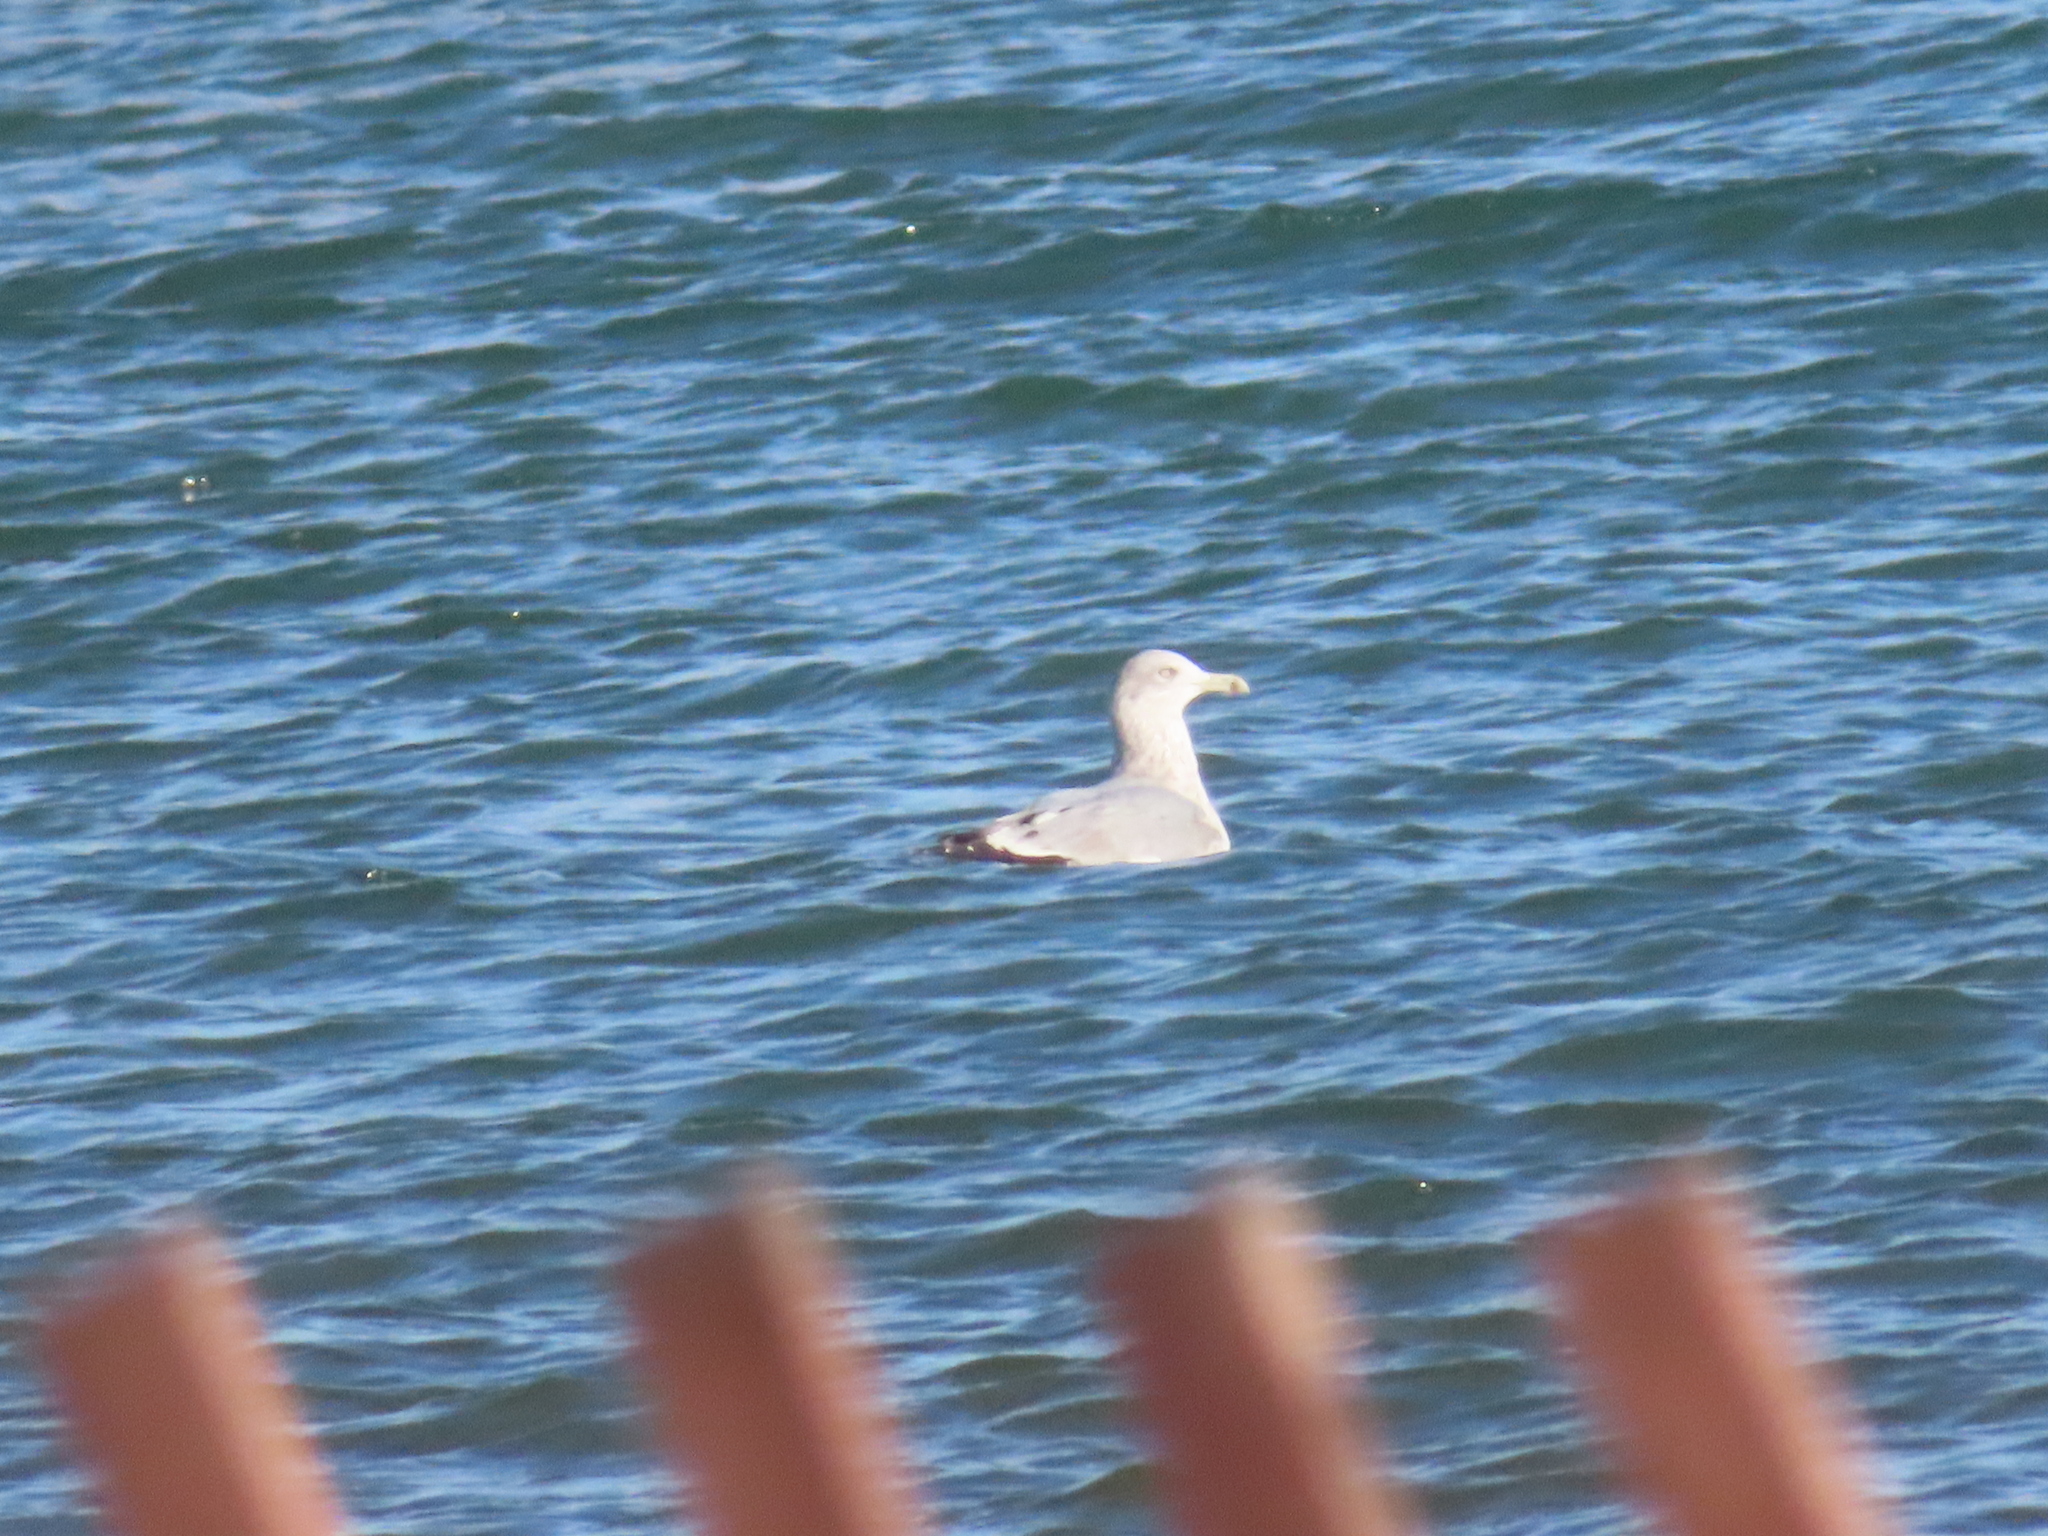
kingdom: Animalia
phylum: Chordata
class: Aves
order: Charadriiformes
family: Laridae
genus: Larus
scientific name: Larus argentatus
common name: Herring gull
